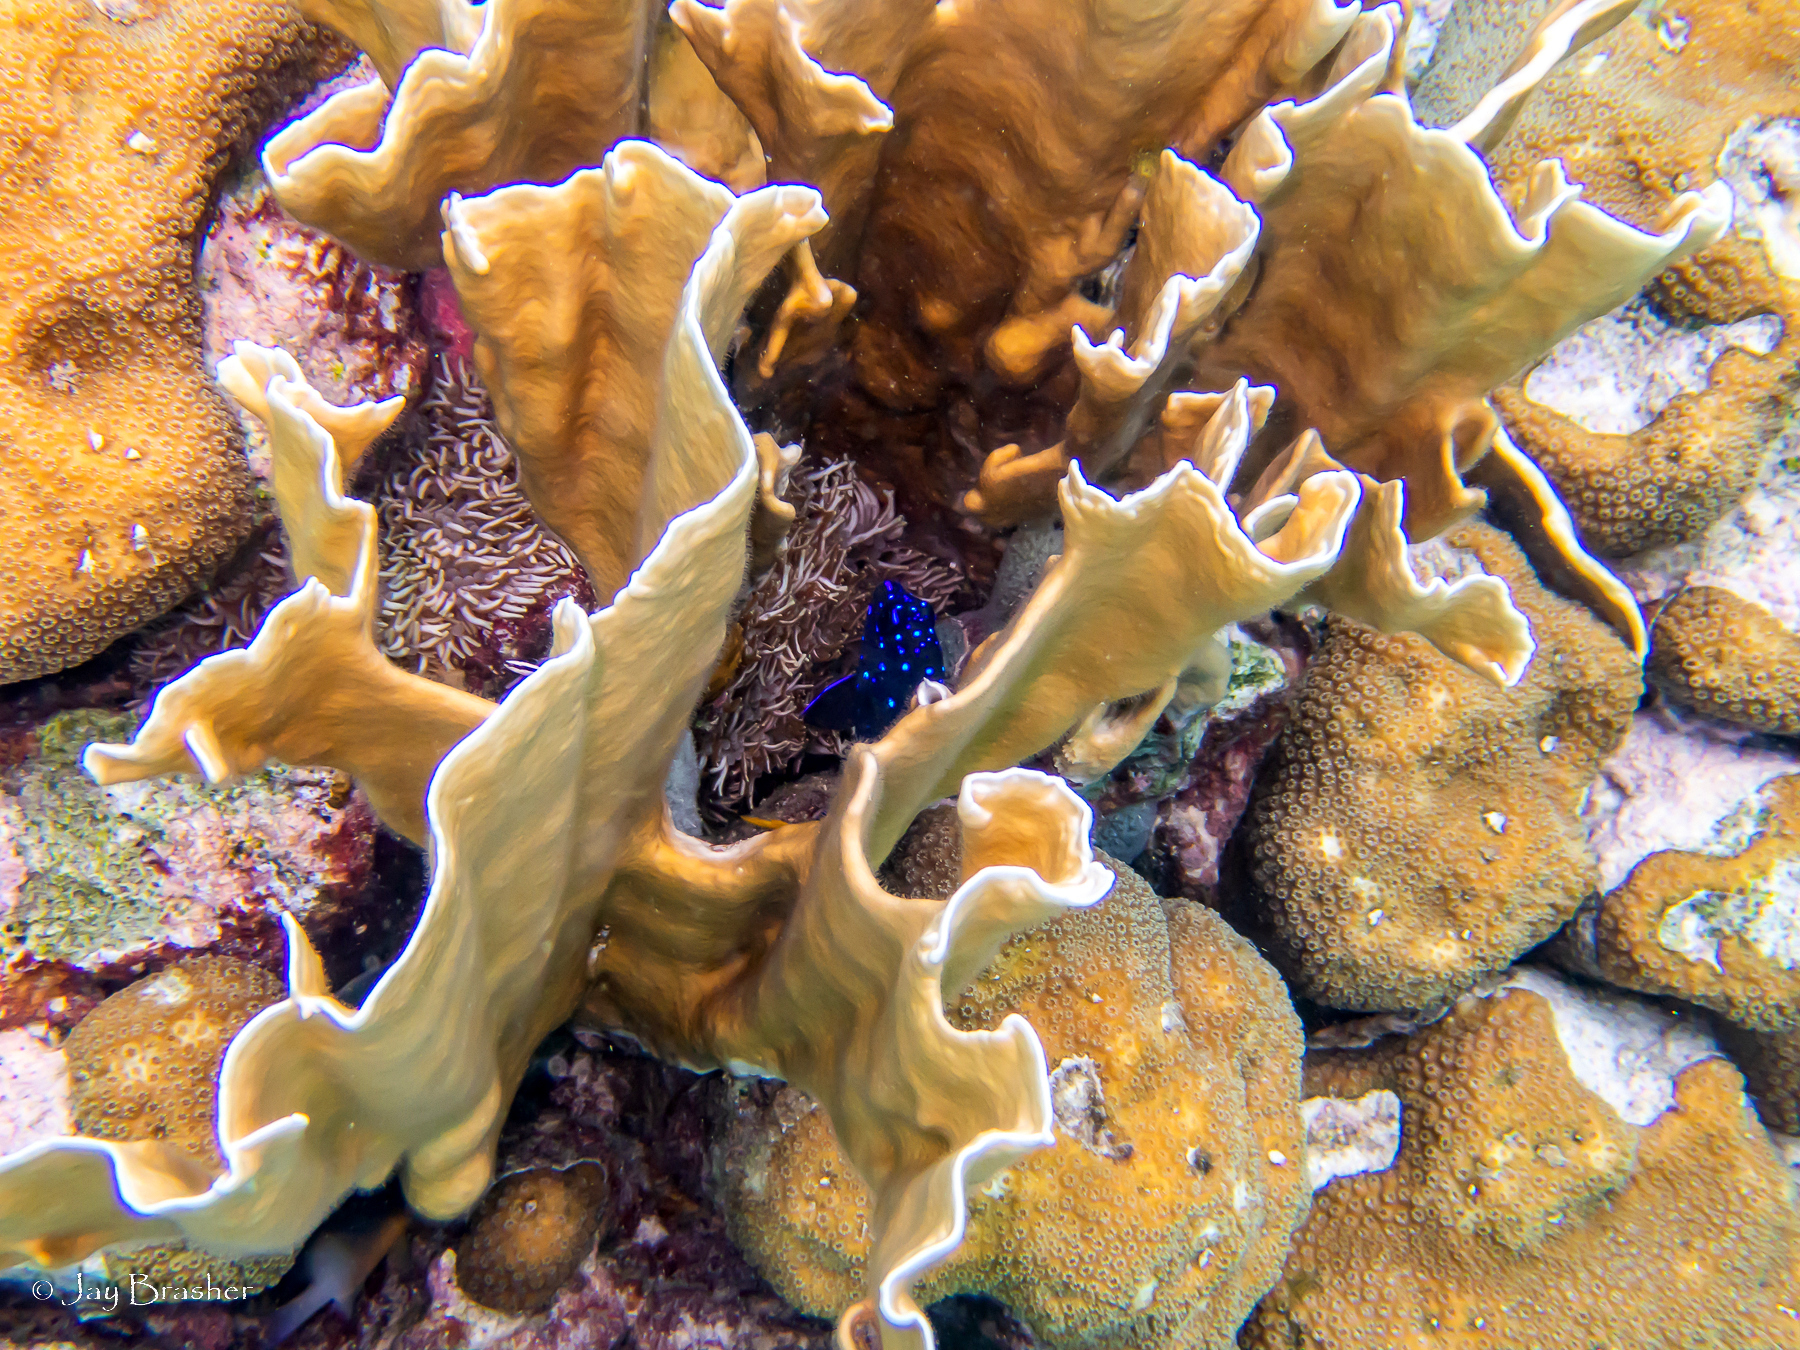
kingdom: Animalia
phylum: Chordata
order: Perciformes
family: Pomacentridae
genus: Microspathodon
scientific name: Microspathodon chrysurus
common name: Yellowtail damselfish
